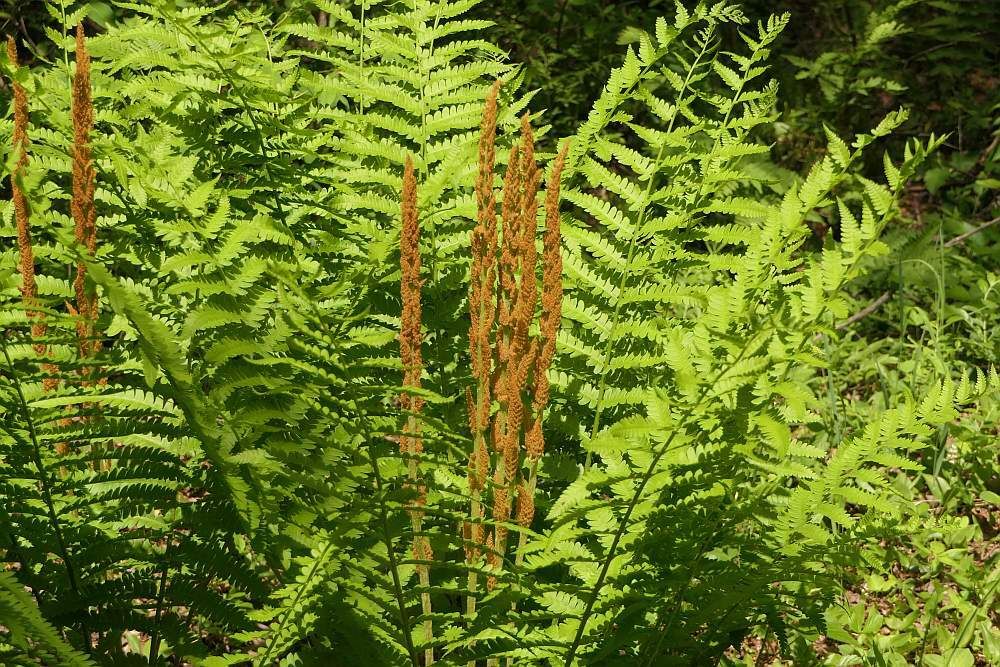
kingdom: Plantae
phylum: Tracheophyta
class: Polypodiopsida
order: Osmundales
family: Osmundaceae
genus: Osmundastrum
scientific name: Osmundastrum cinnamomeum
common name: Cinnamon fern
